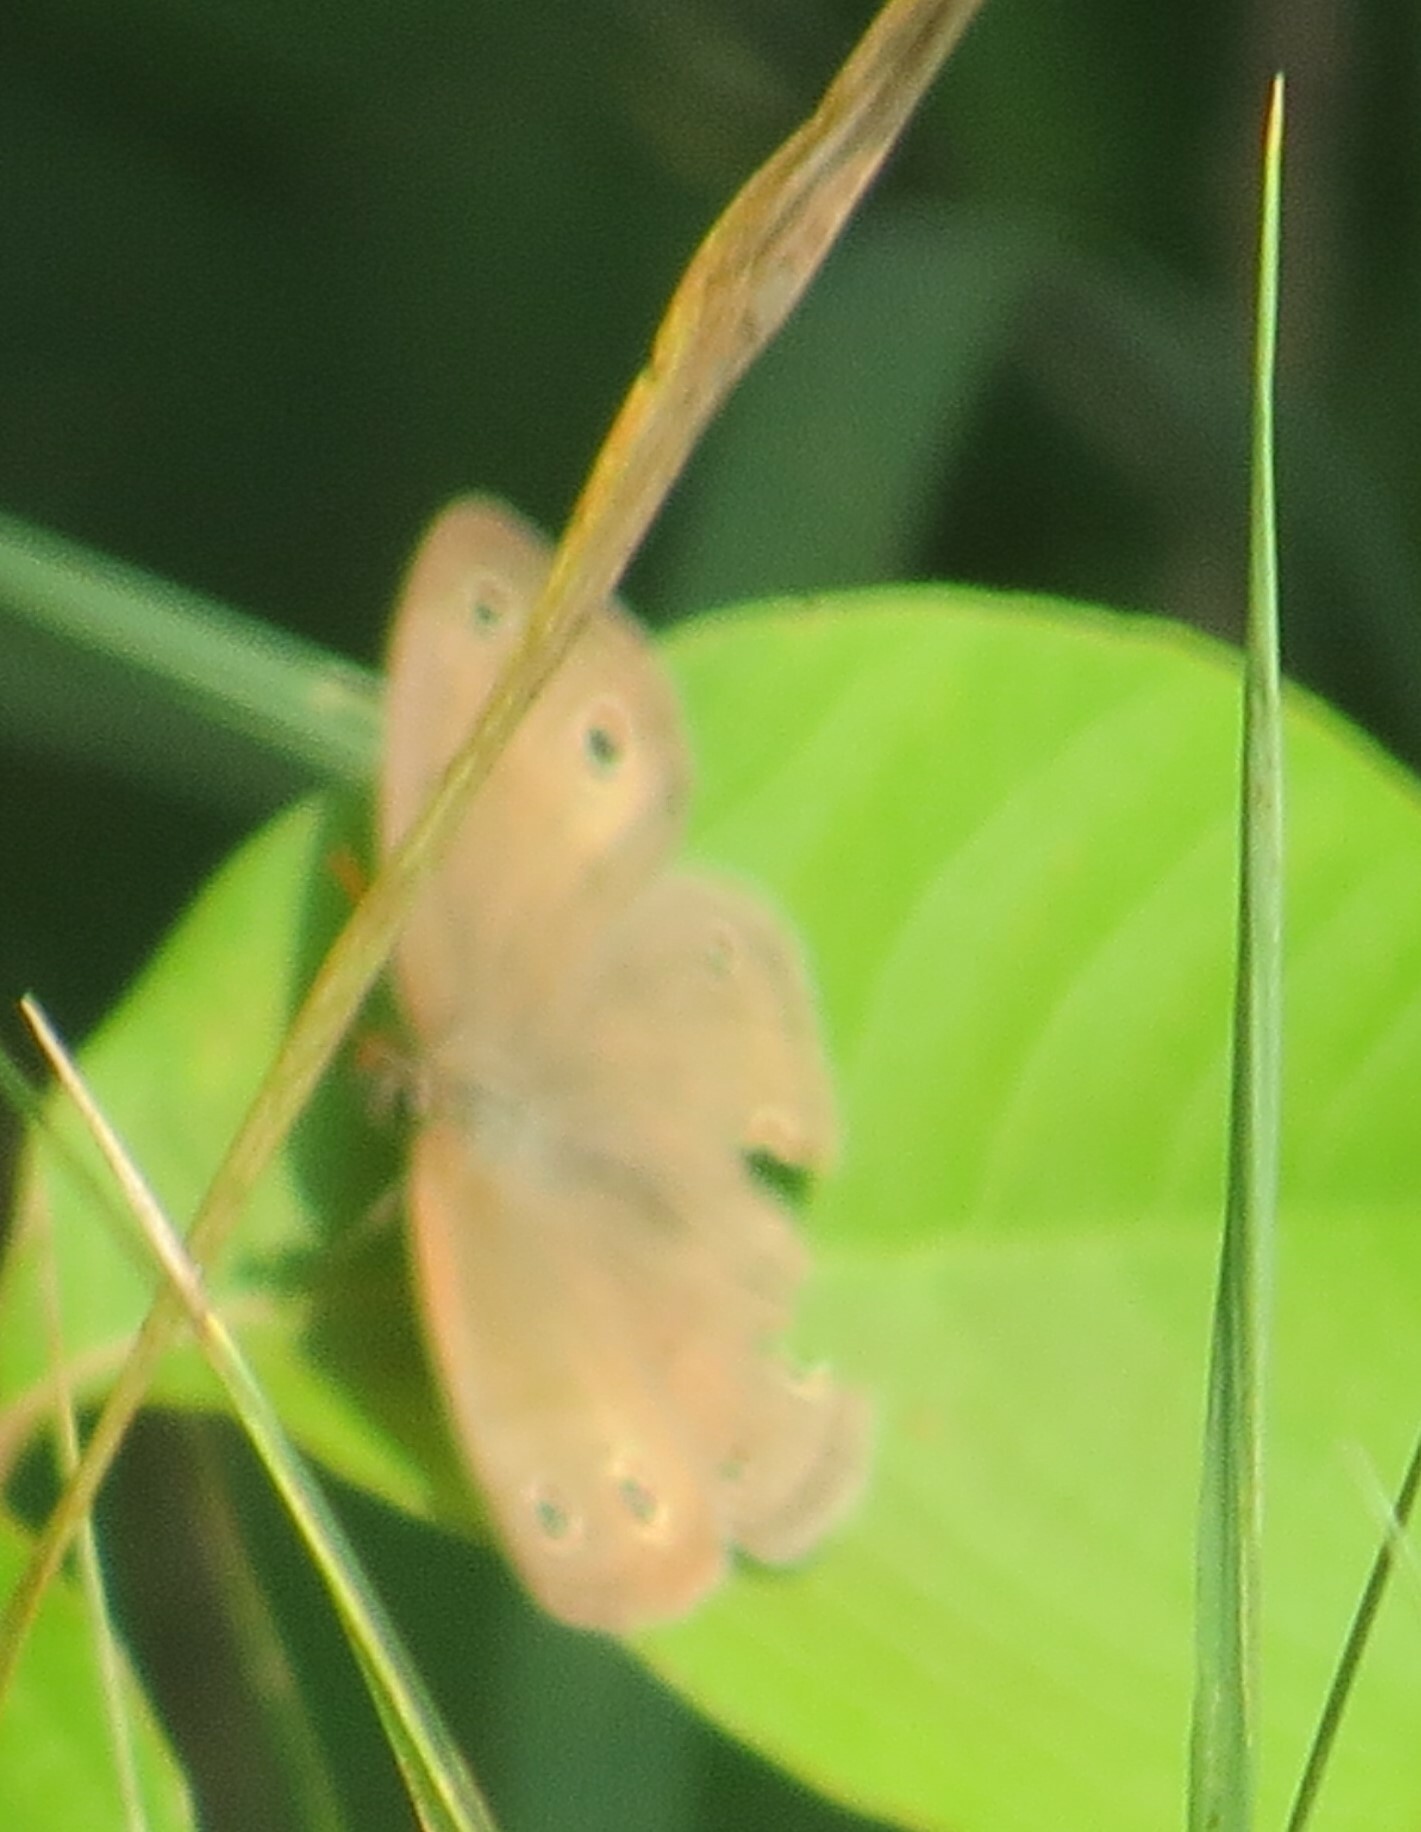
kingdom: Animalia
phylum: Arthropoda
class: Insecta
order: Lepidoptera
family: Nymphalidae
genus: Euptychia
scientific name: Euptychia cymela
